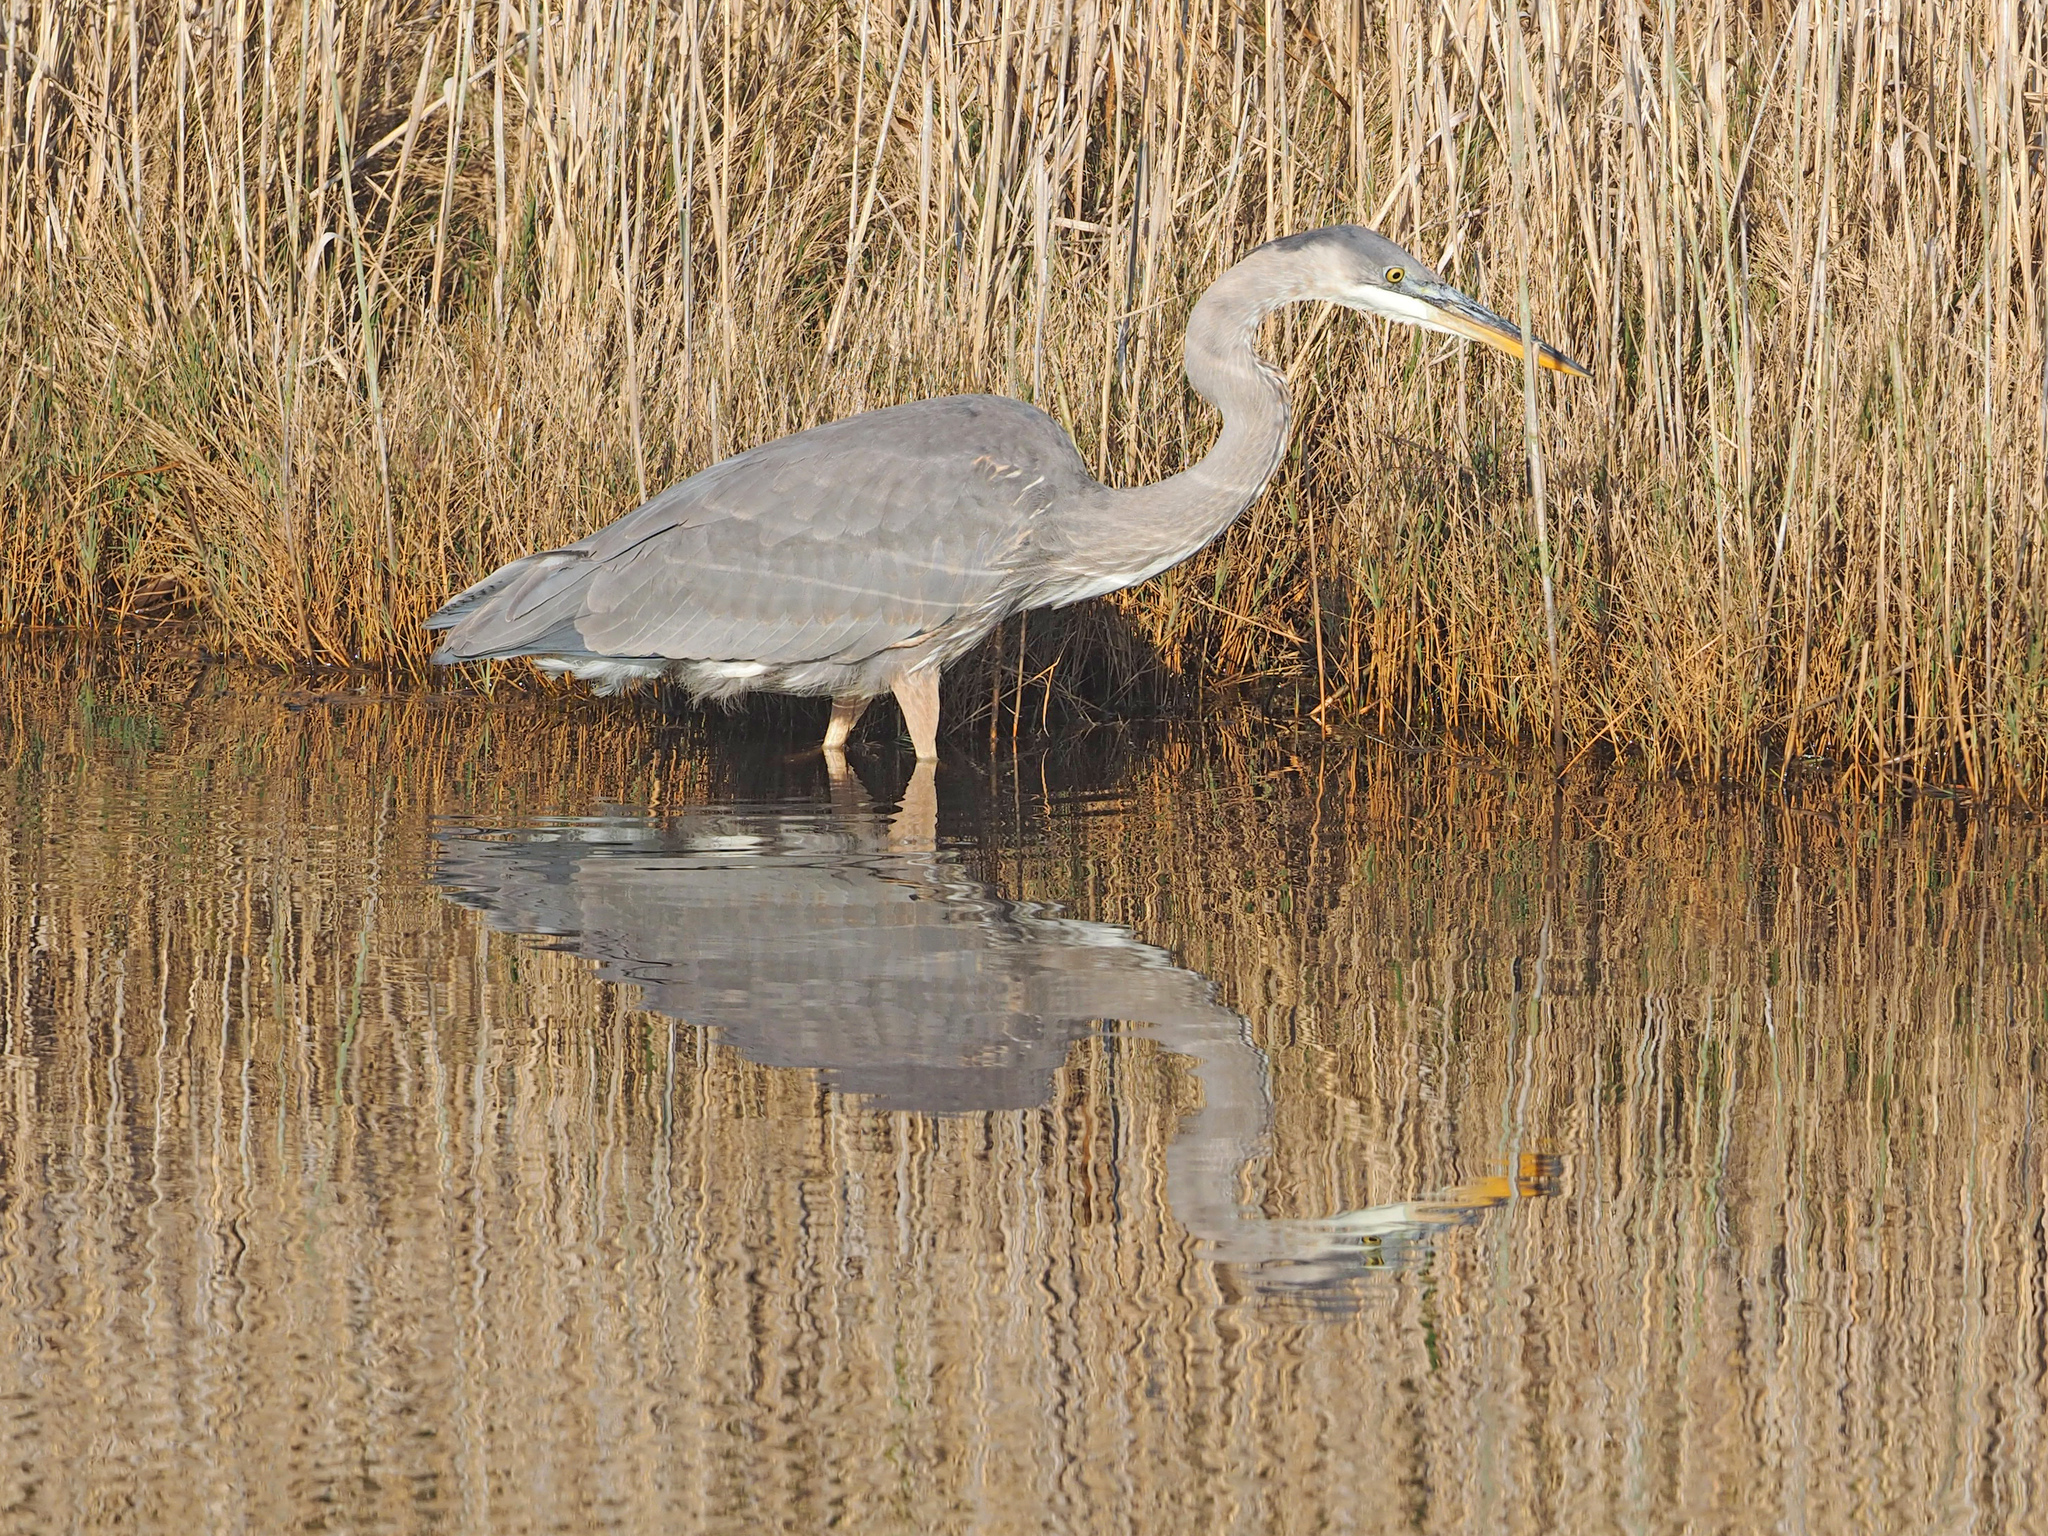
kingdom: Animalia
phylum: Chordata
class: Aves
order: Pelecaniformes
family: Ardeidae
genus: Ardea
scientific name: Ardea herodias
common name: Great blue heron
